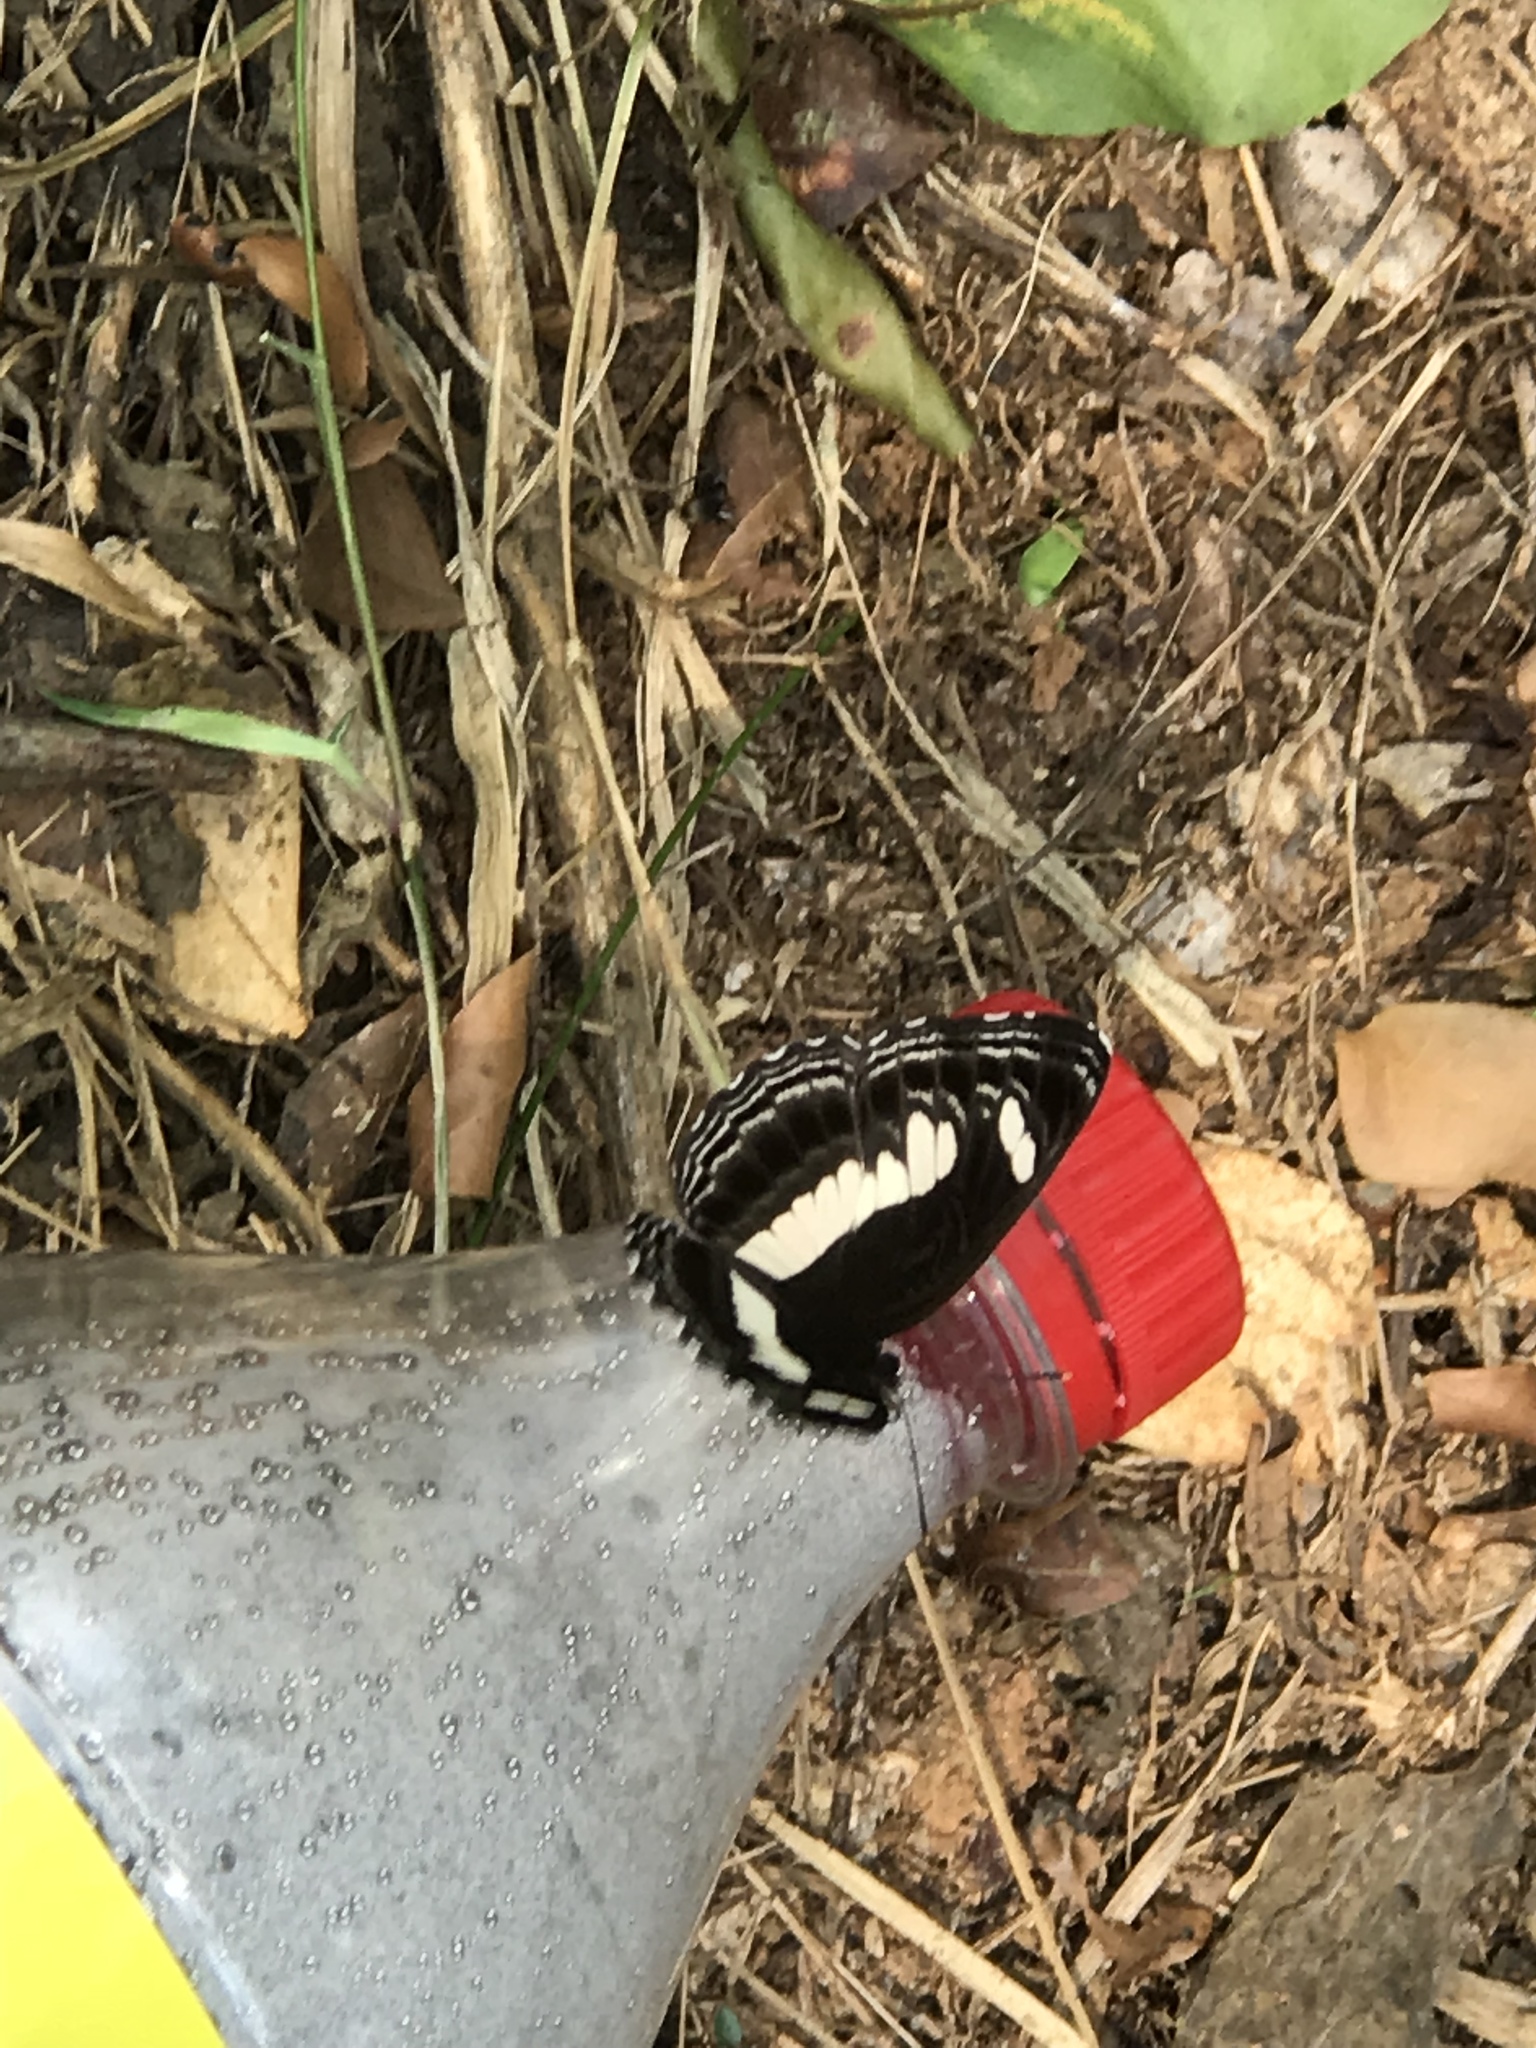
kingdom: Animalia
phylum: Arthropoda
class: Insecta
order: Lepidoptera
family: Nymphalidae
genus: Neptis
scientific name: Neptis nemetes
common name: Nemetes sailer
